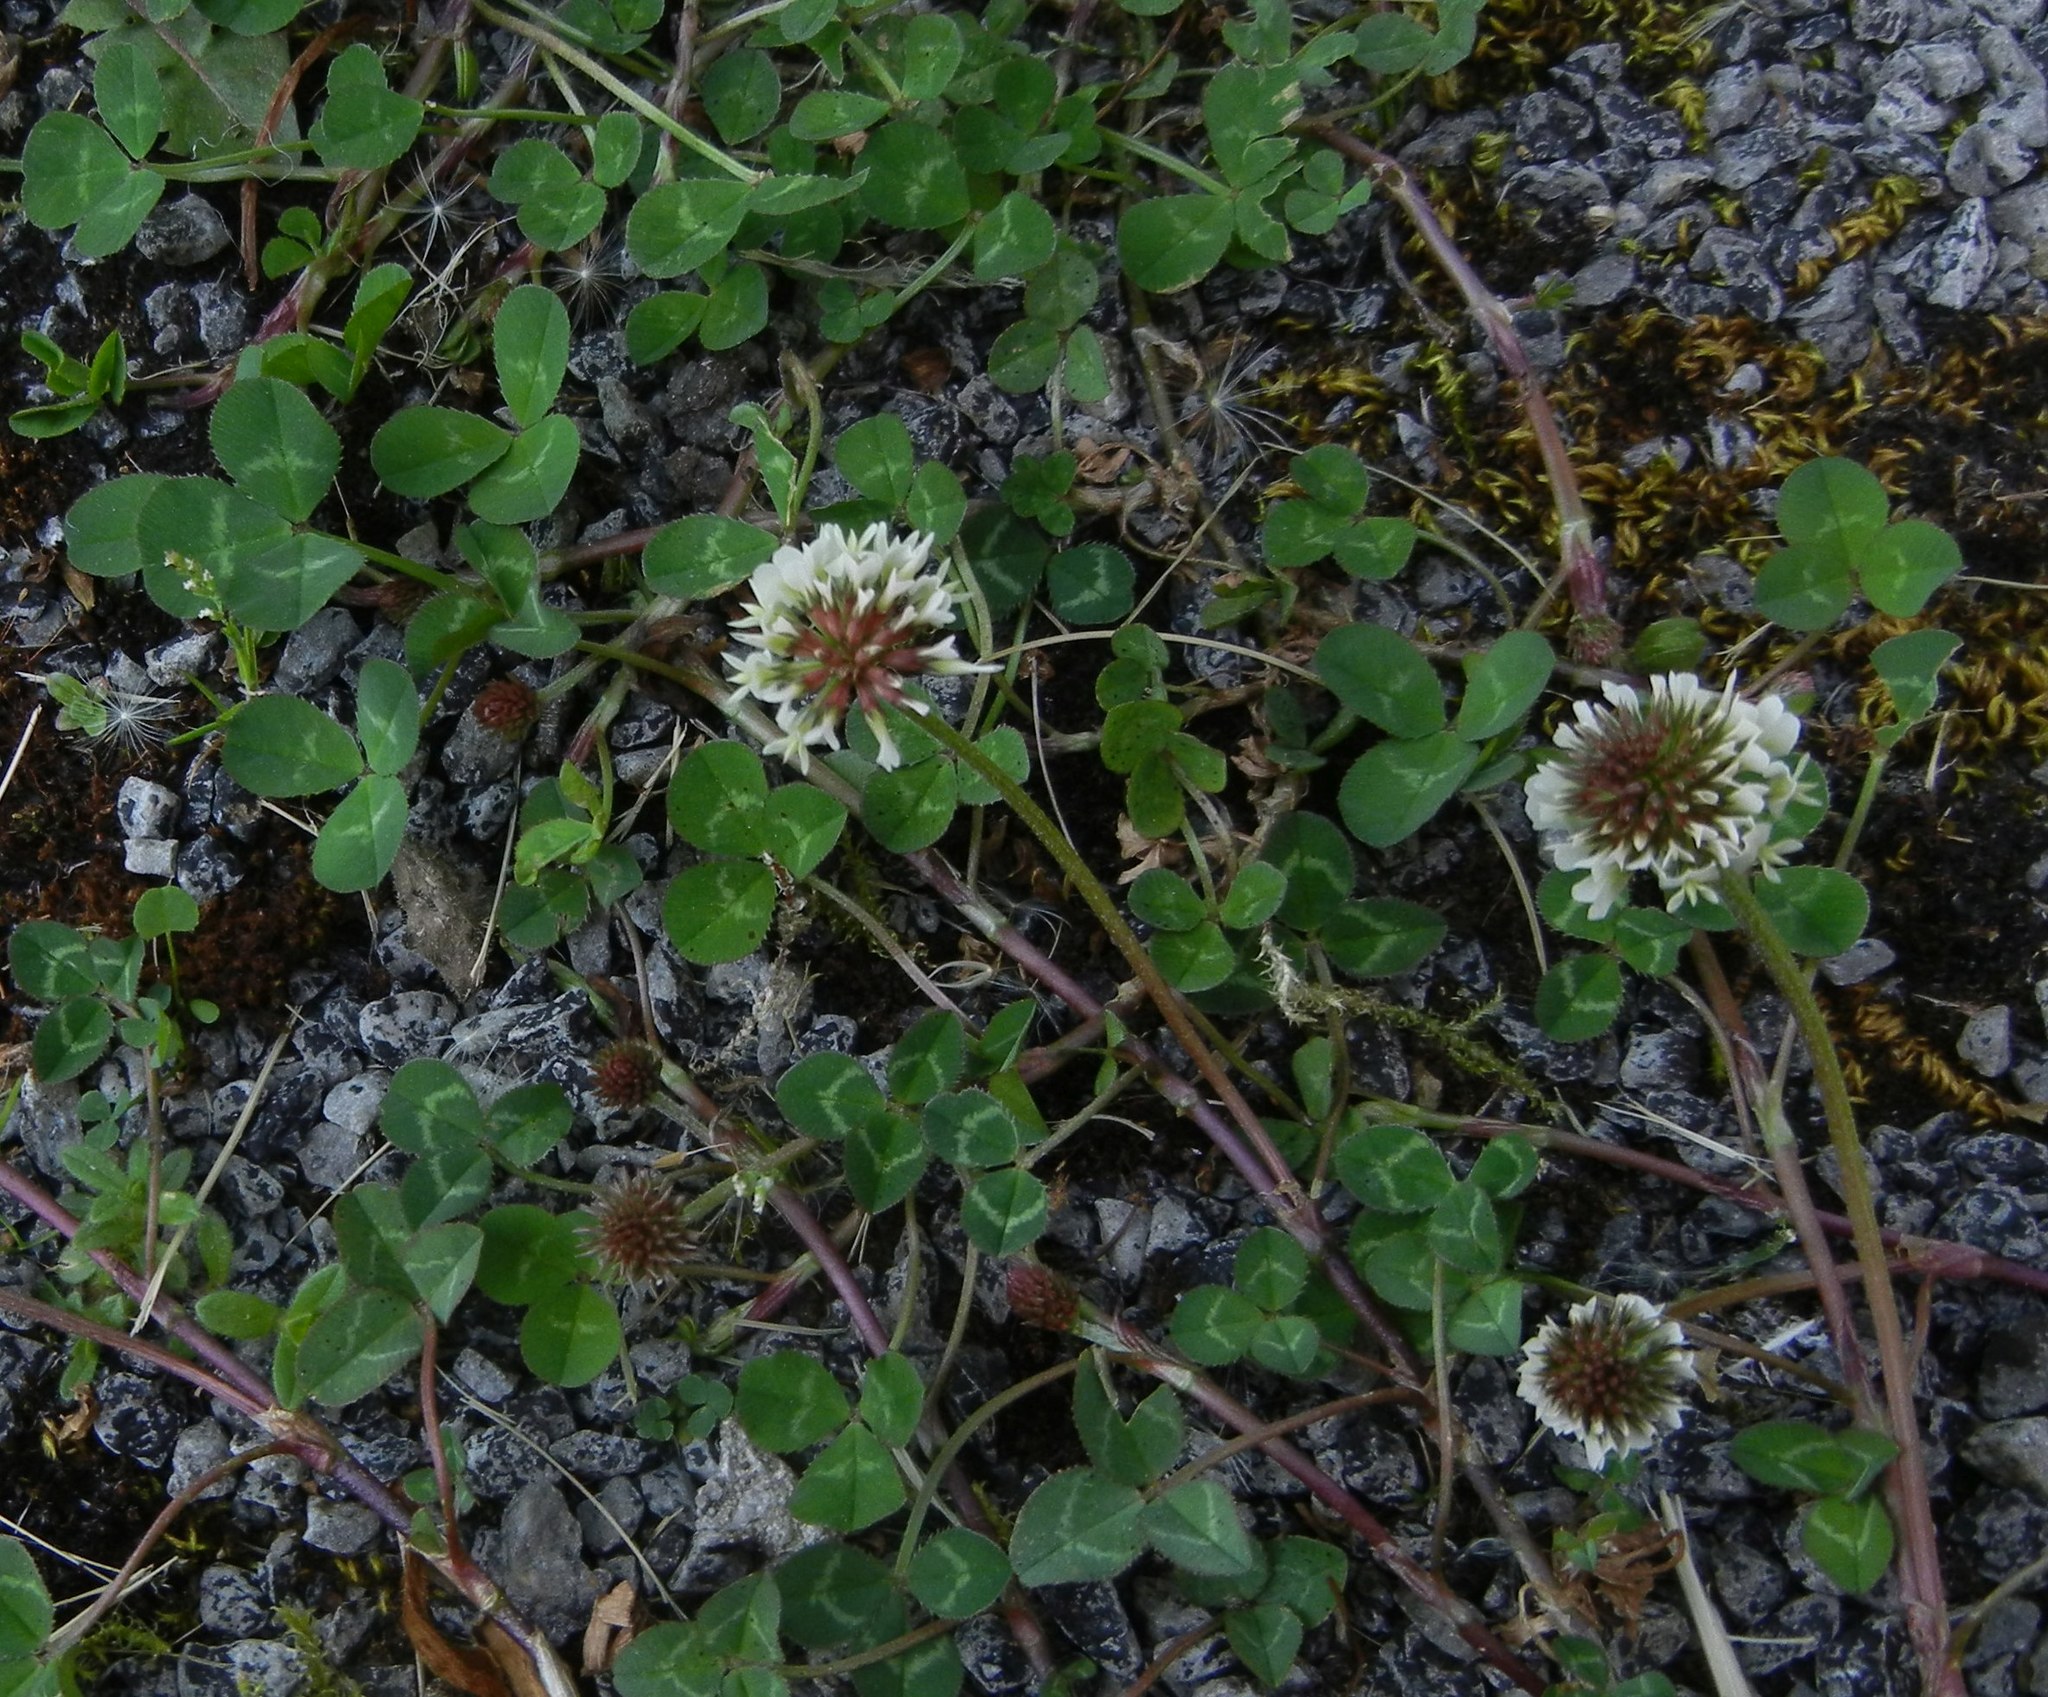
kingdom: Plantae
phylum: Tracheophyta
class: Magnoliopsida
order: Fabales
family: Fabaceae
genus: Trifolium
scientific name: Trifolium repens
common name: White clover
